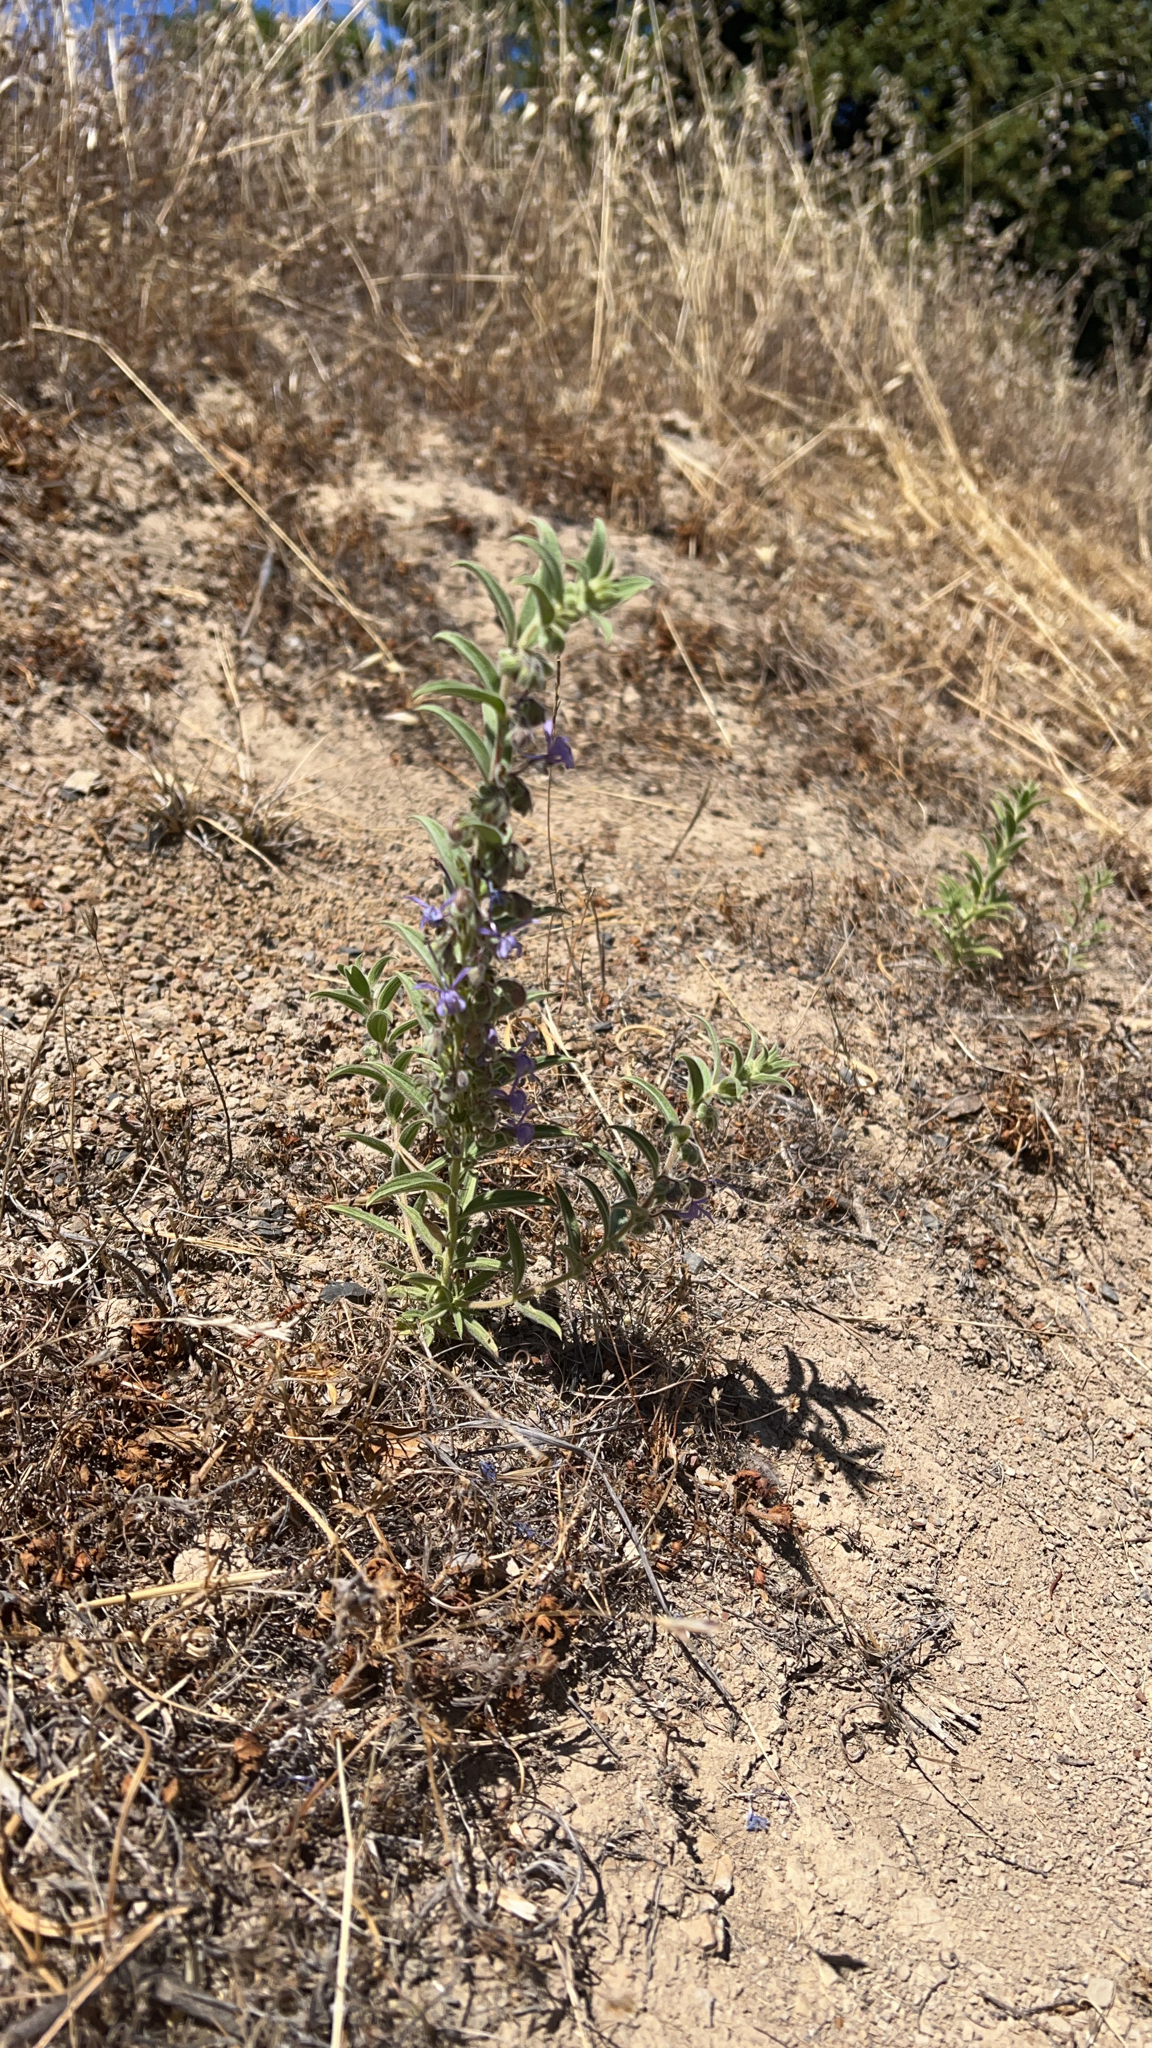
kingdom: Plantae
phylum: Tracheophyta
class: Magnoliopsida
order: Lamiales
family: Lamiaceae
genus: Trichostema
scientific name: Trichostema lanceolatum
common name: Vinegar-weed
